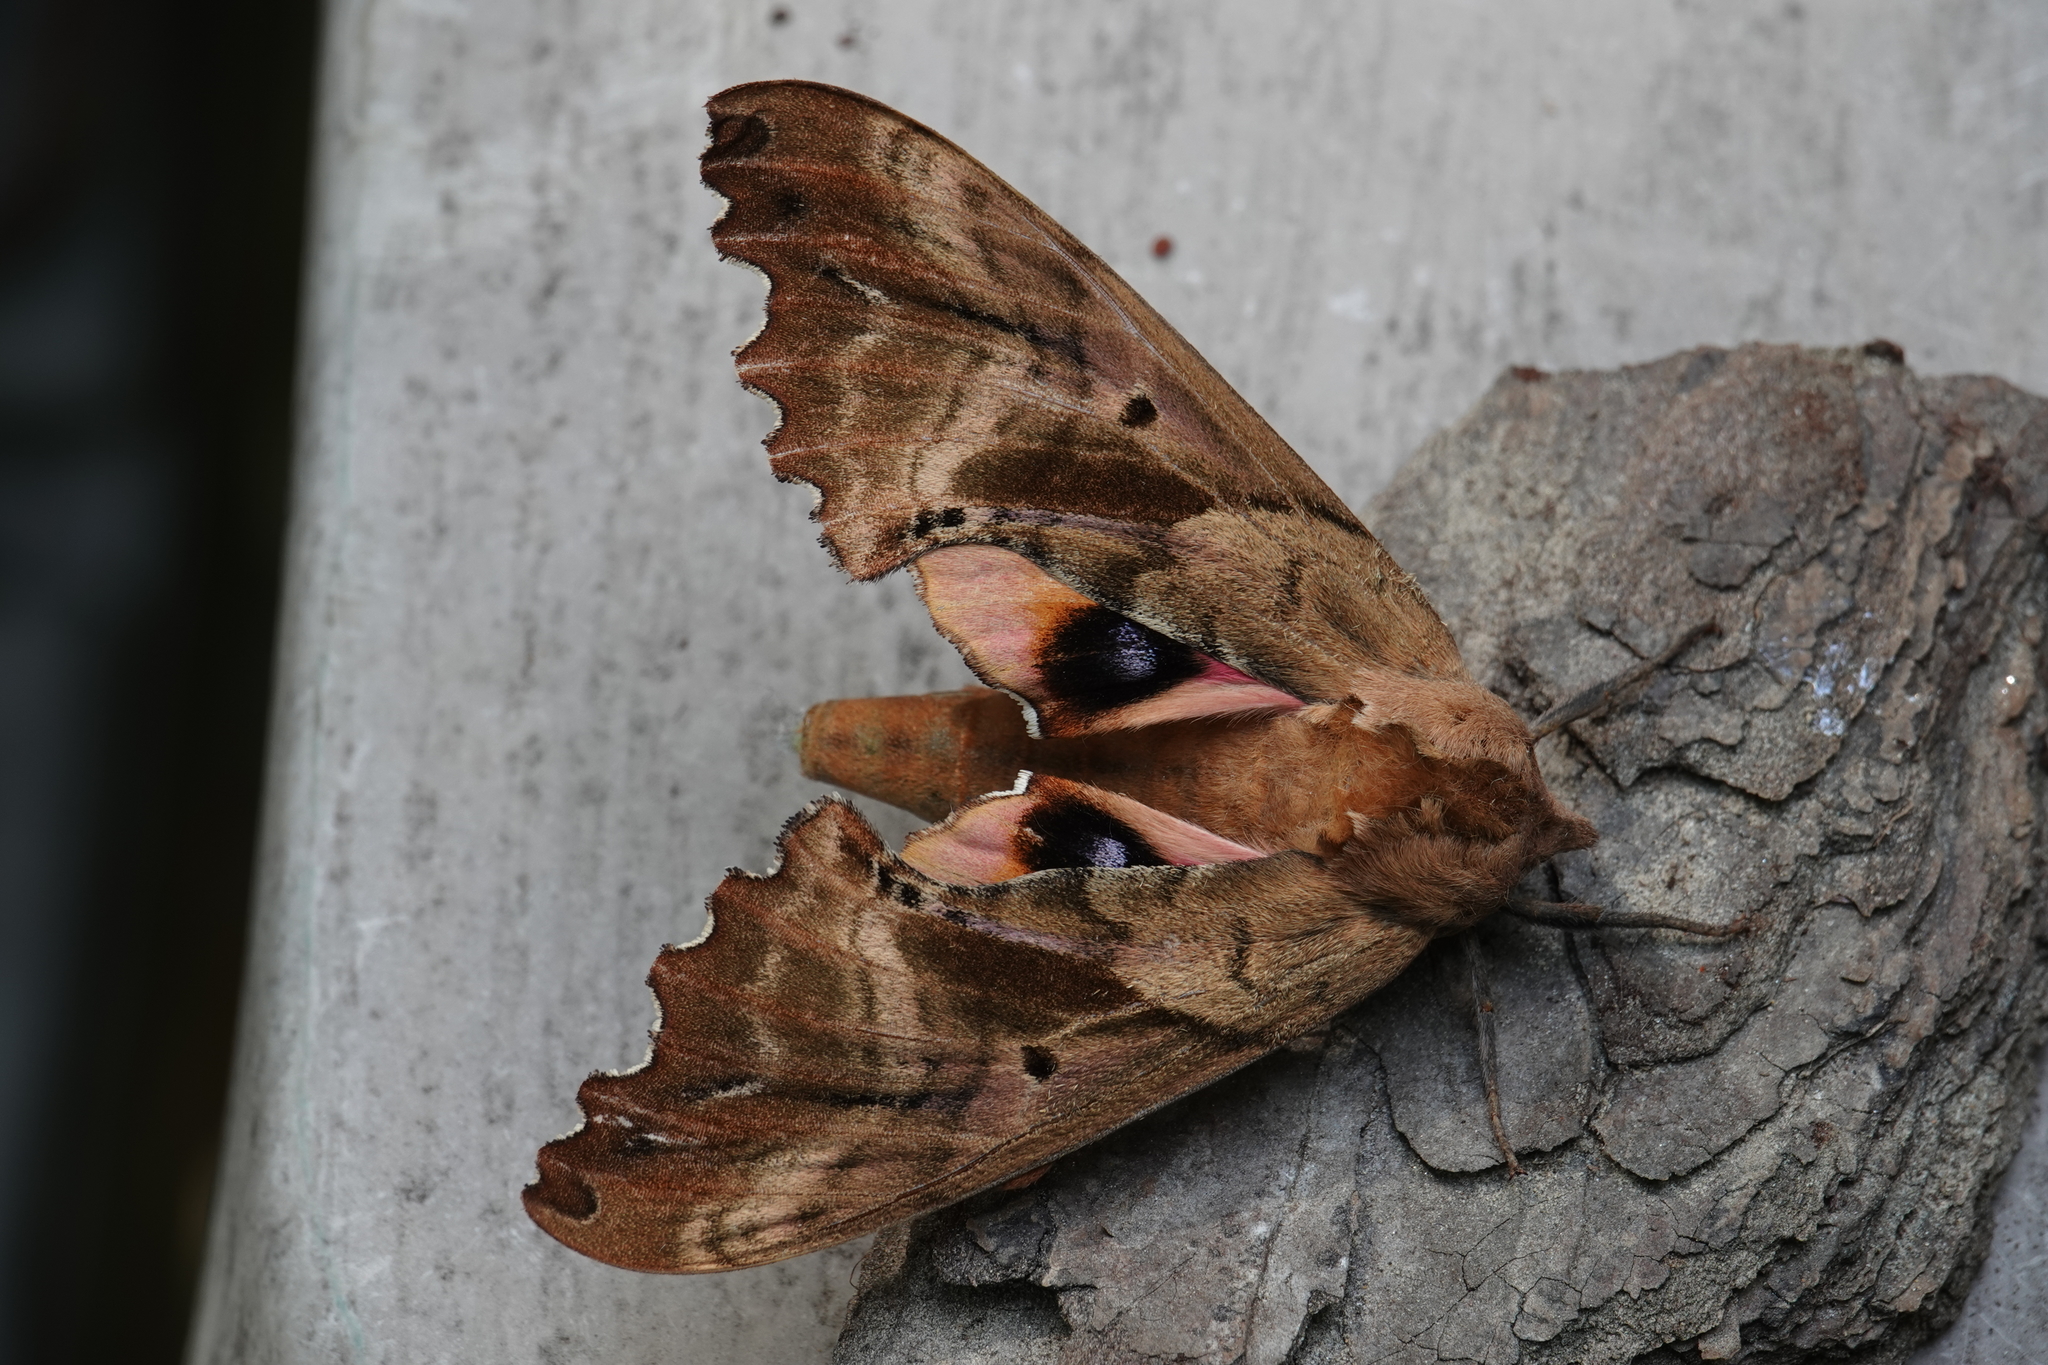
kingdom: Animalia
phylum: Arthropoda
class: Insecta
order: Lepidoptera
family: Sphingidae
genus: Paonias
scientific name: Paonias excaecata
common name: Blind-eyed sphinx
